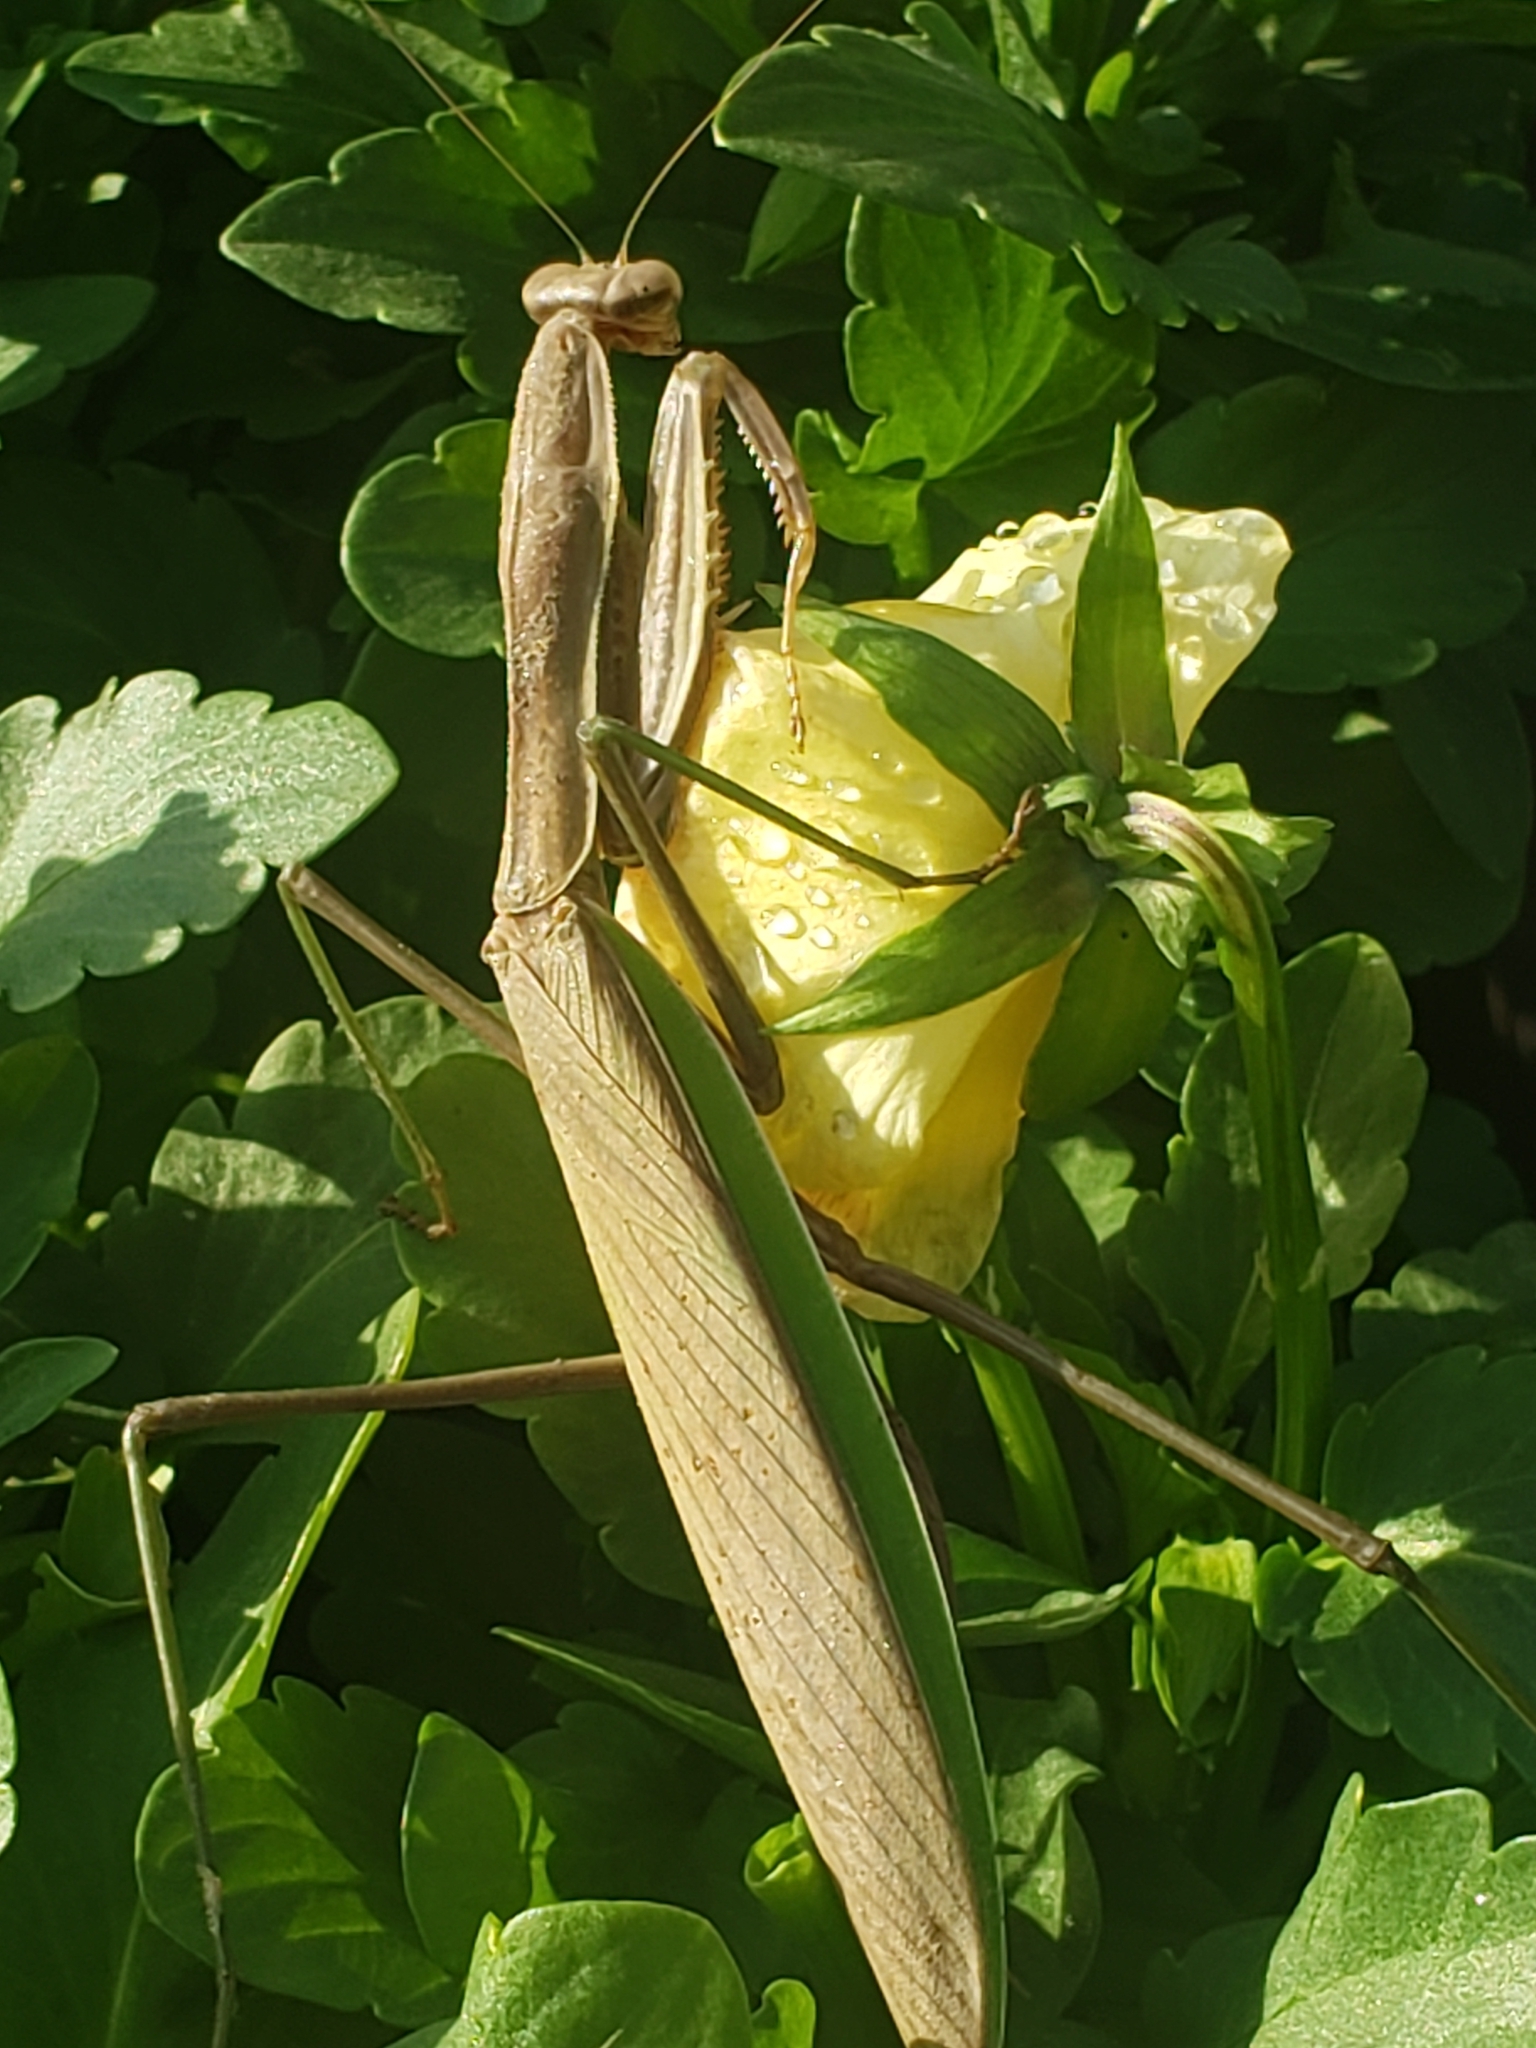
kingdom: Animalia
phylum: Arthropoda
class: Insecta
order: Mantodea
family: Mantidae
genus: Tenodera
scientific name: Tenodera sinensis
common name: Chinese mantis
